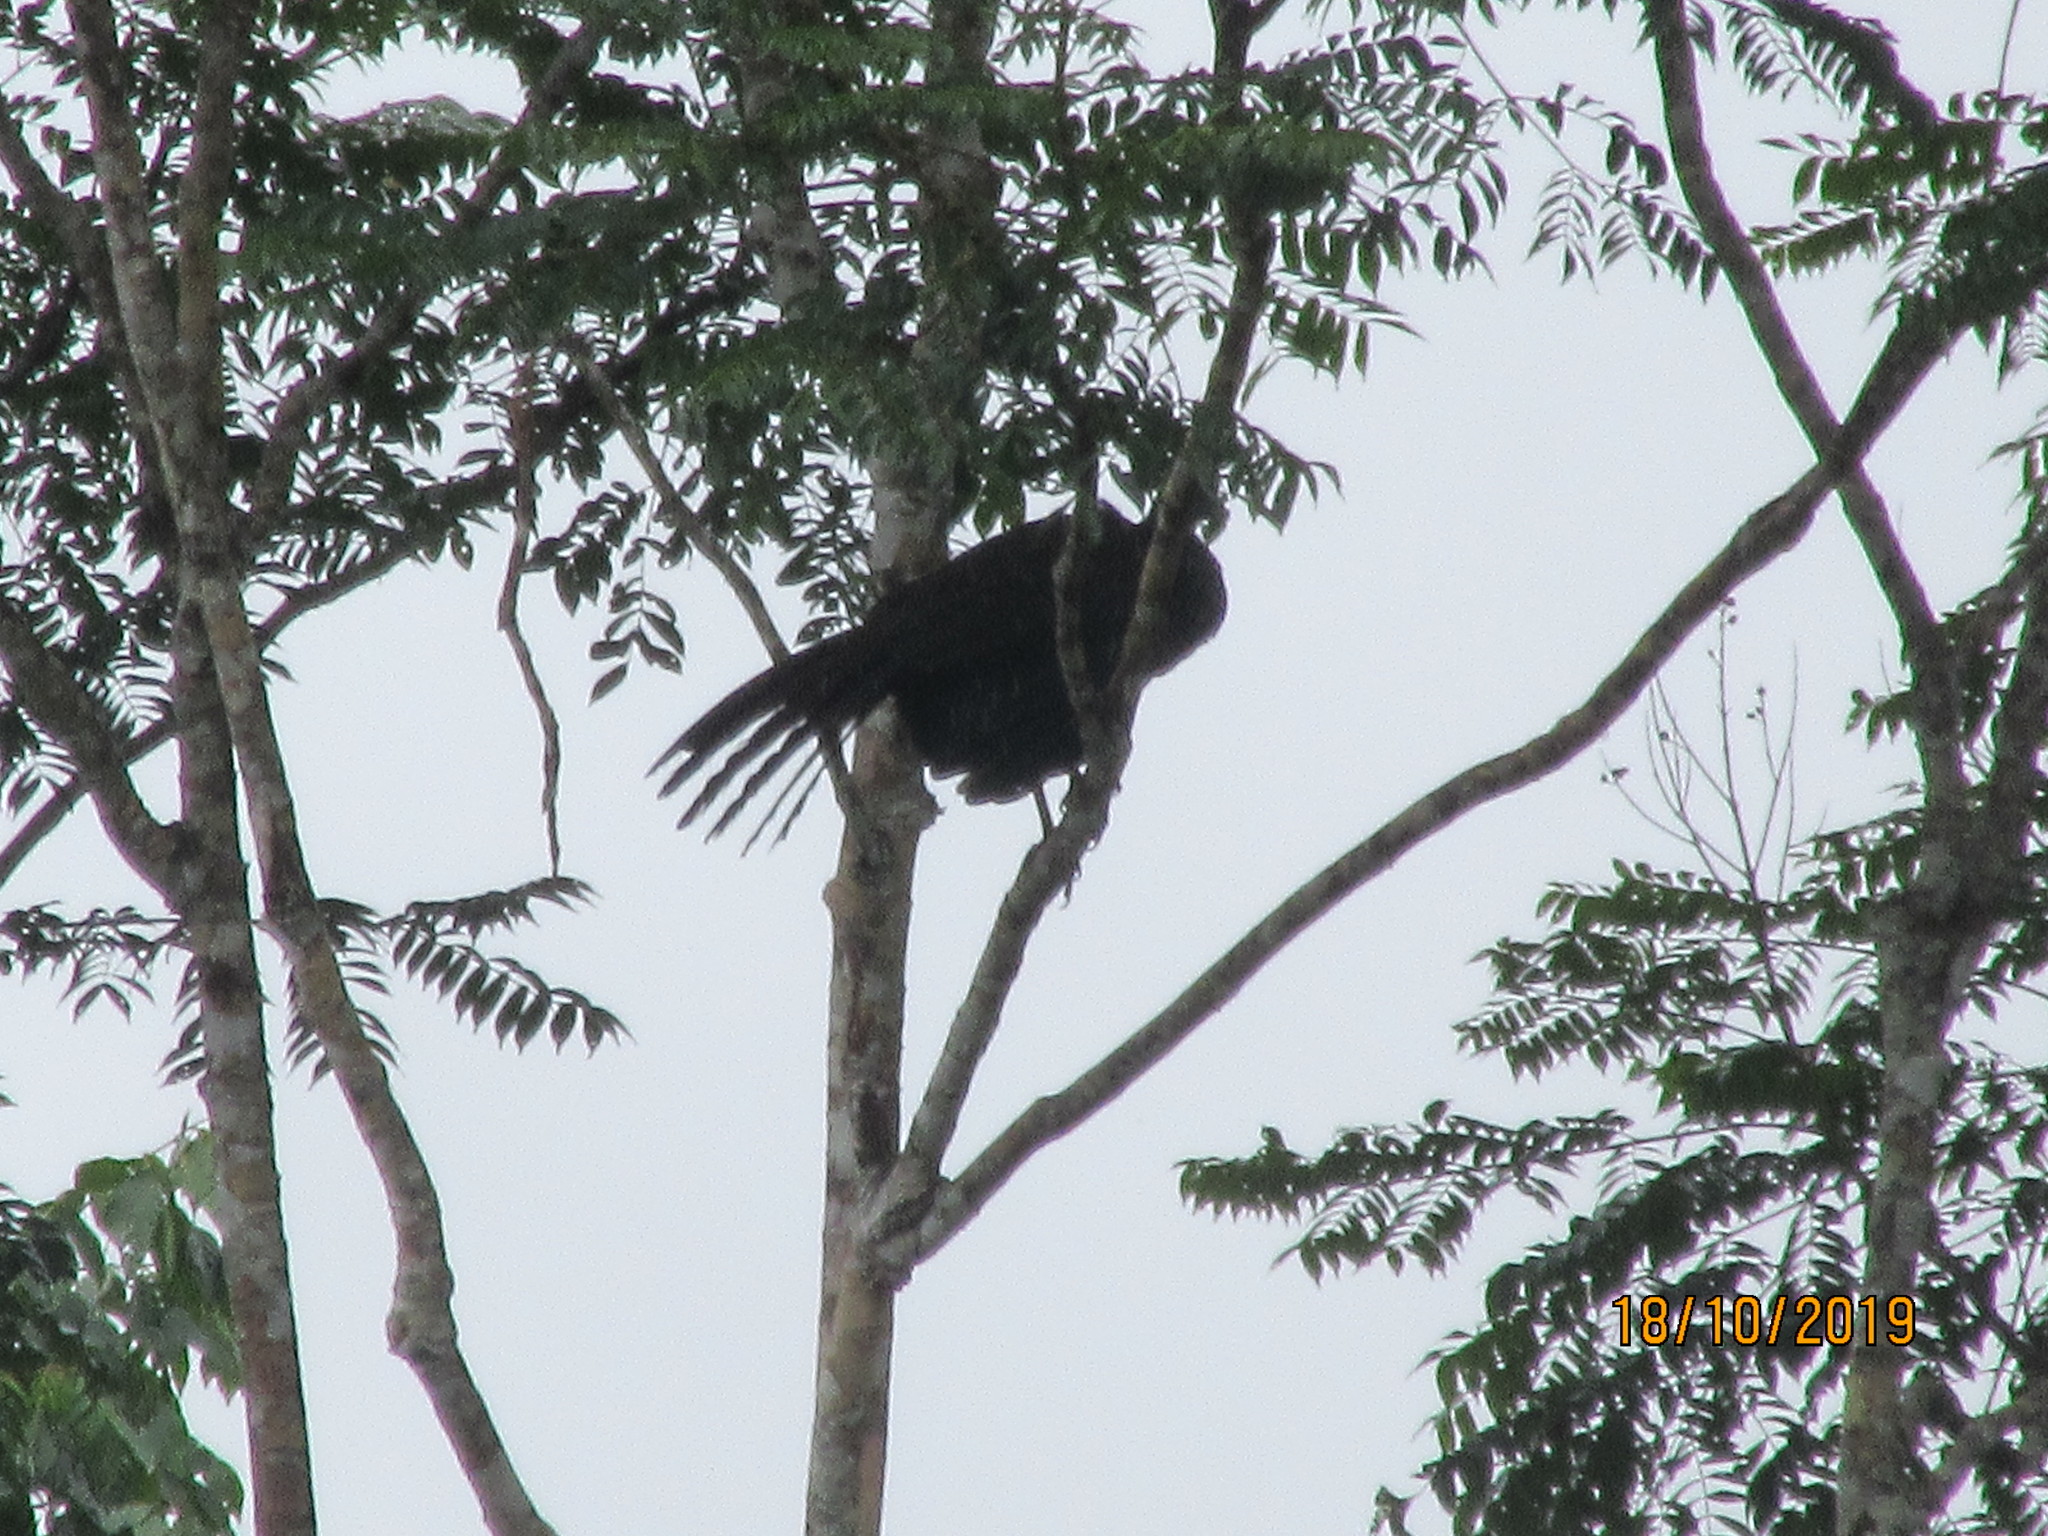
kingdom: Animalia
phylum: Chordata
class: Aves
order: Galliformes
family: Cracidae
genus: Penelope
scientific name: Penelope jacquacu
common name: Spix's guan
